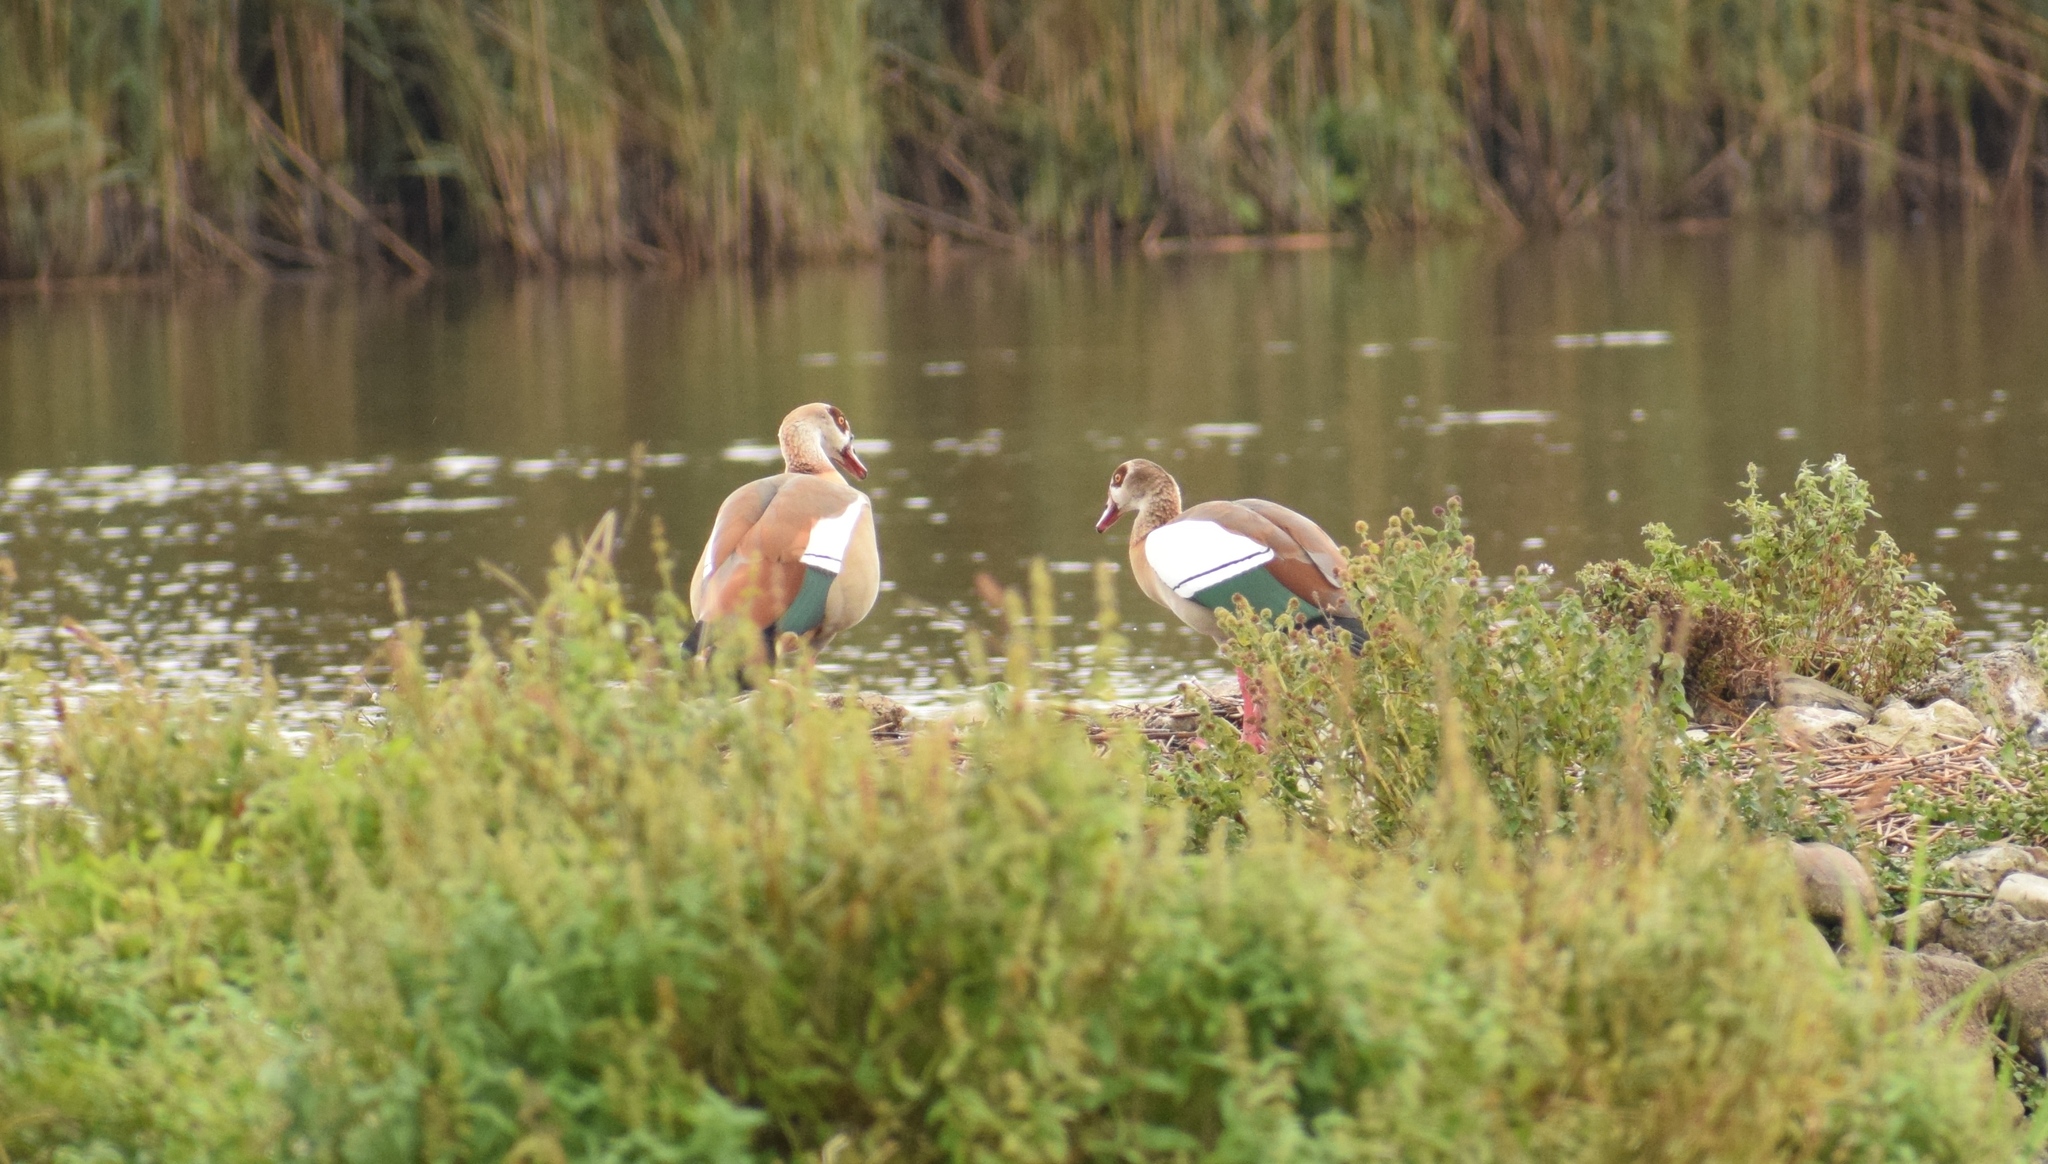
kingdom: Animalia
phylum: Chordata
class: Aves
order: Anseriformes
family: Anatidae
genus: Alopochen
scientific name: Alopochen aegyptiaca
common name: Egyptian goose
